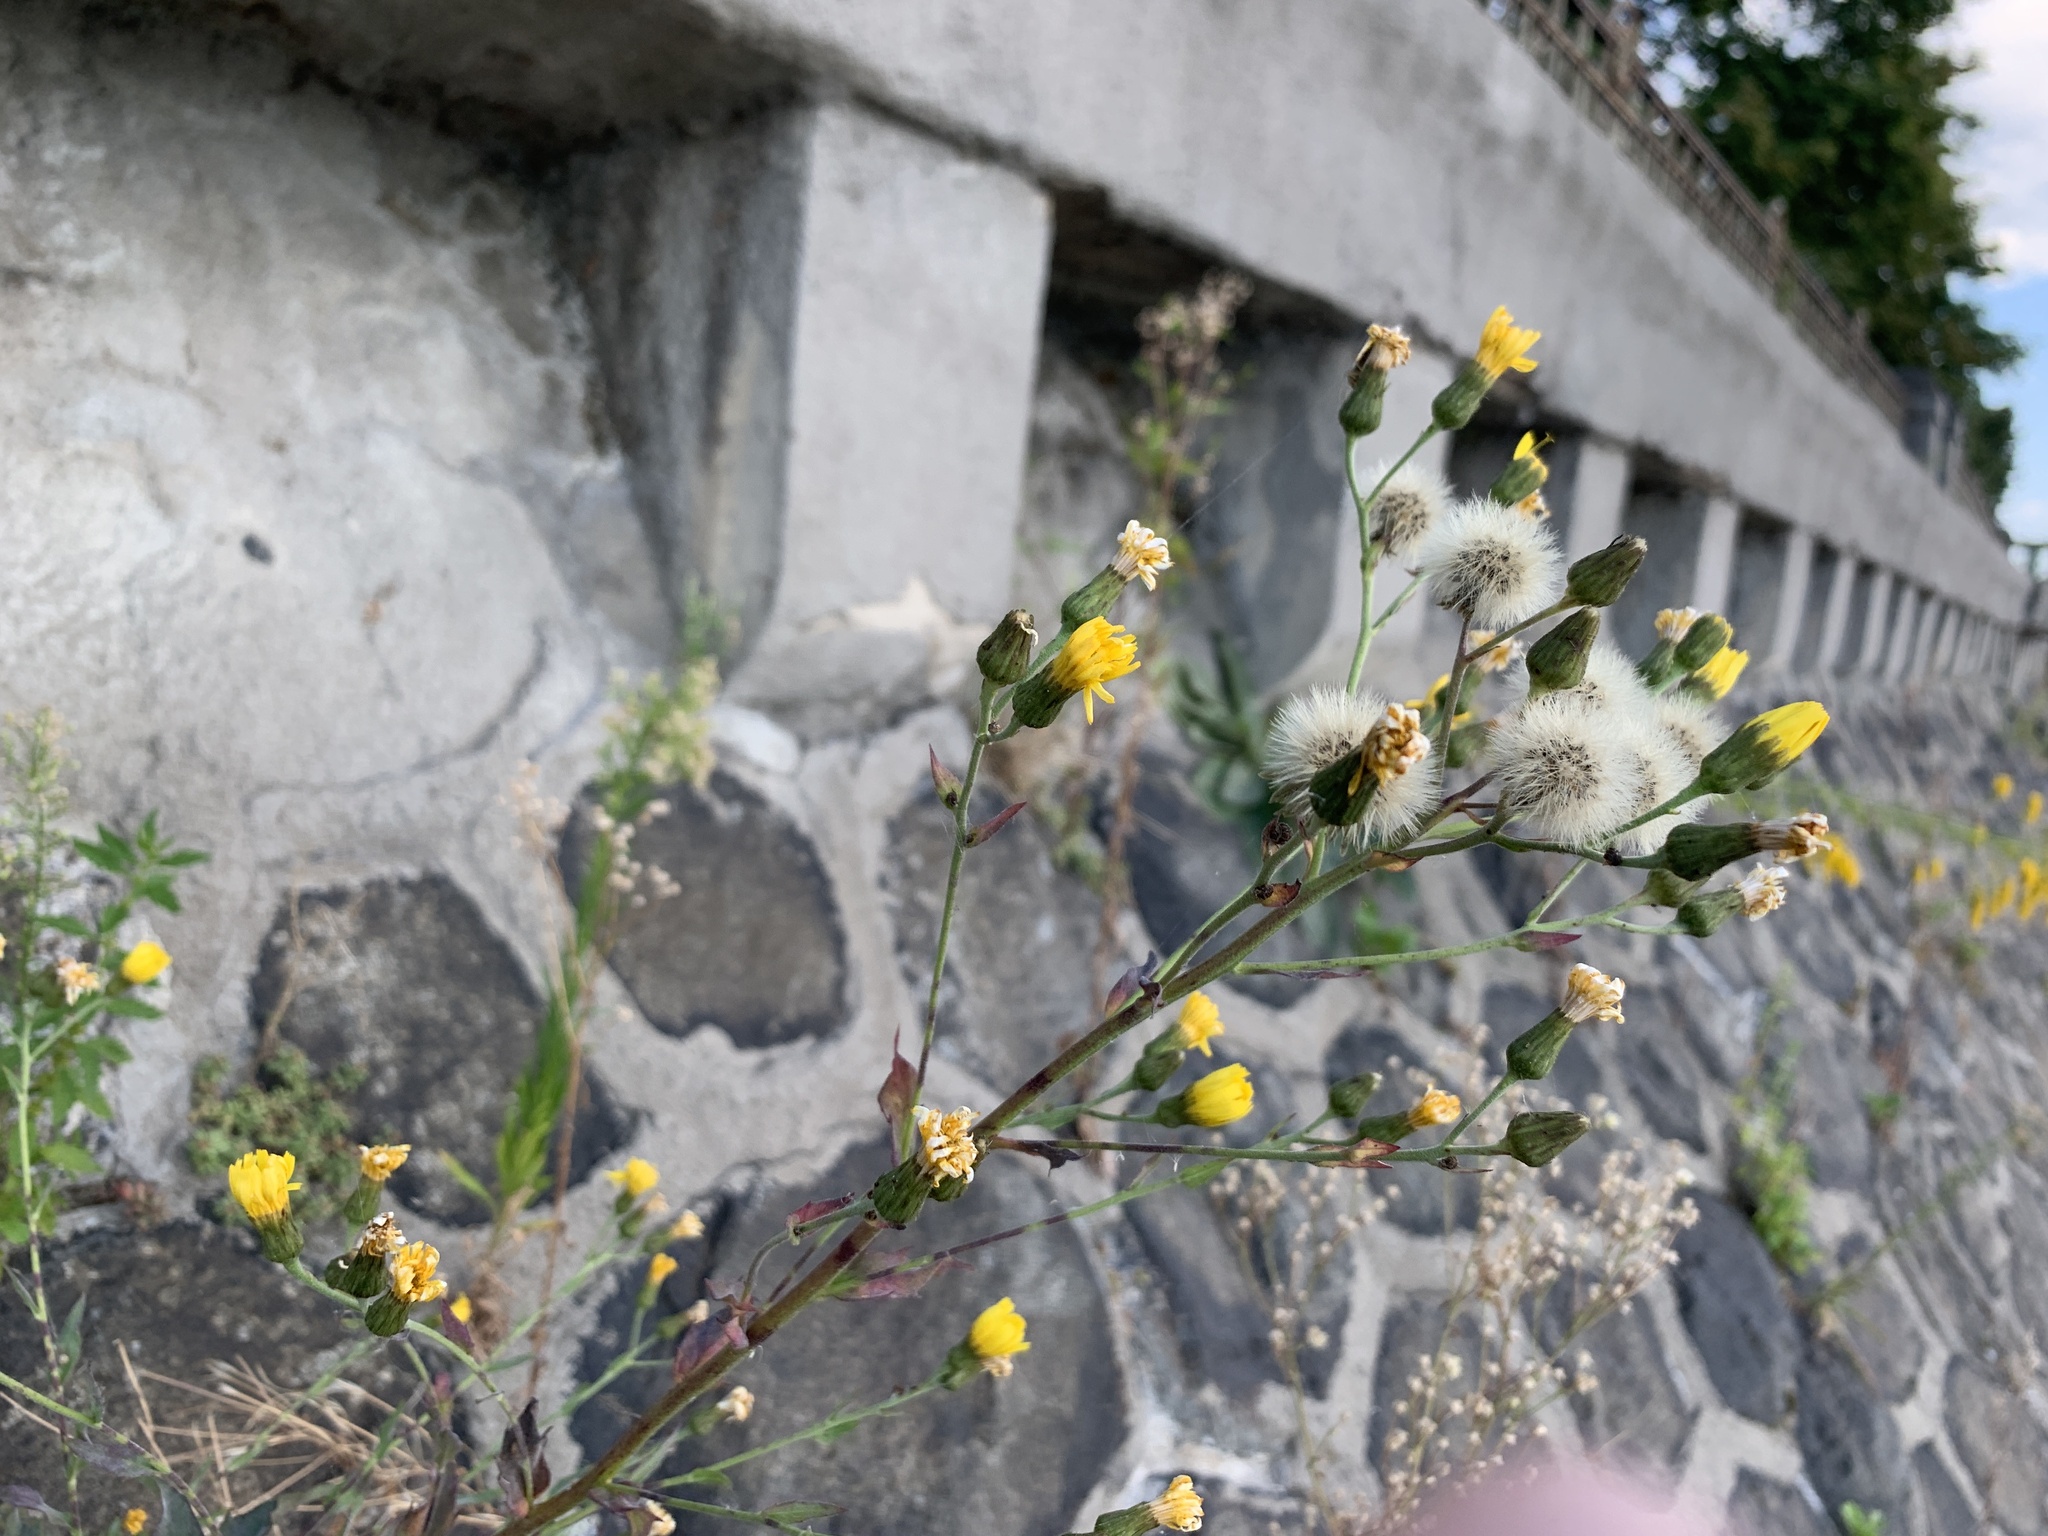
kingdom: Plantae
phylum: Tracheophyta
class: Magnoliopsida
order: Asterales
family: Asteraceae
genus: Hieracium
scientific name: Hieracium sabaudum
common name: New england hawkweed
